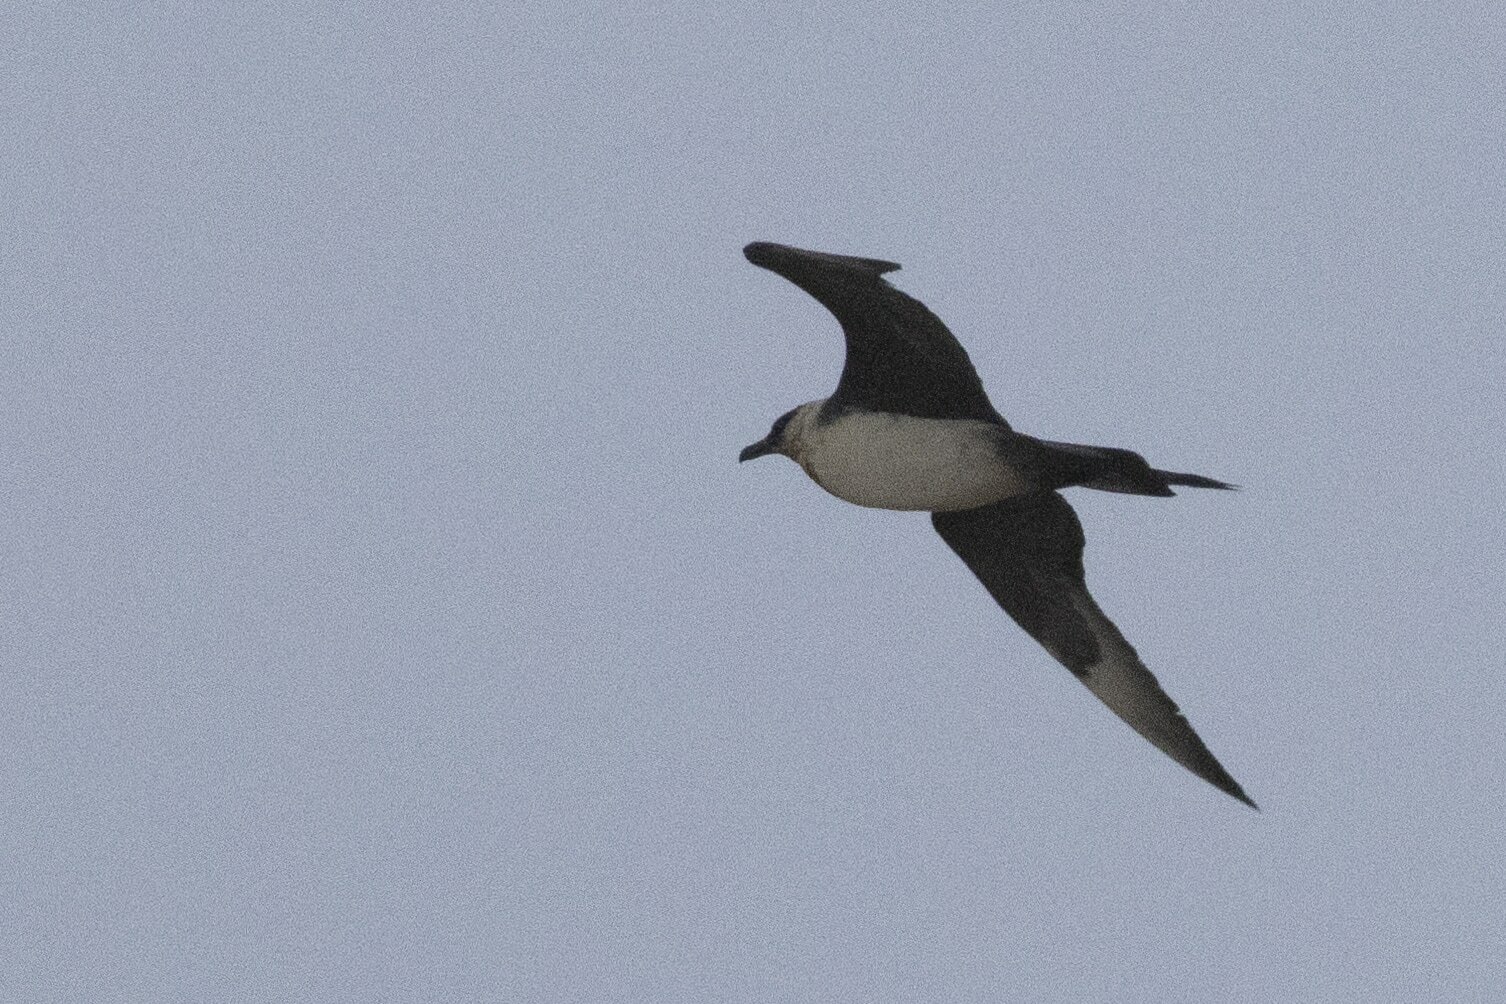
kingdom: Animalia
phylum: Chordata
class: Aves
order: Charadriiformes
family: Stercorariidae
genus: Stercorarius
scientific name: Stercorarius parasiticus
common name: Parasitic jaeger
